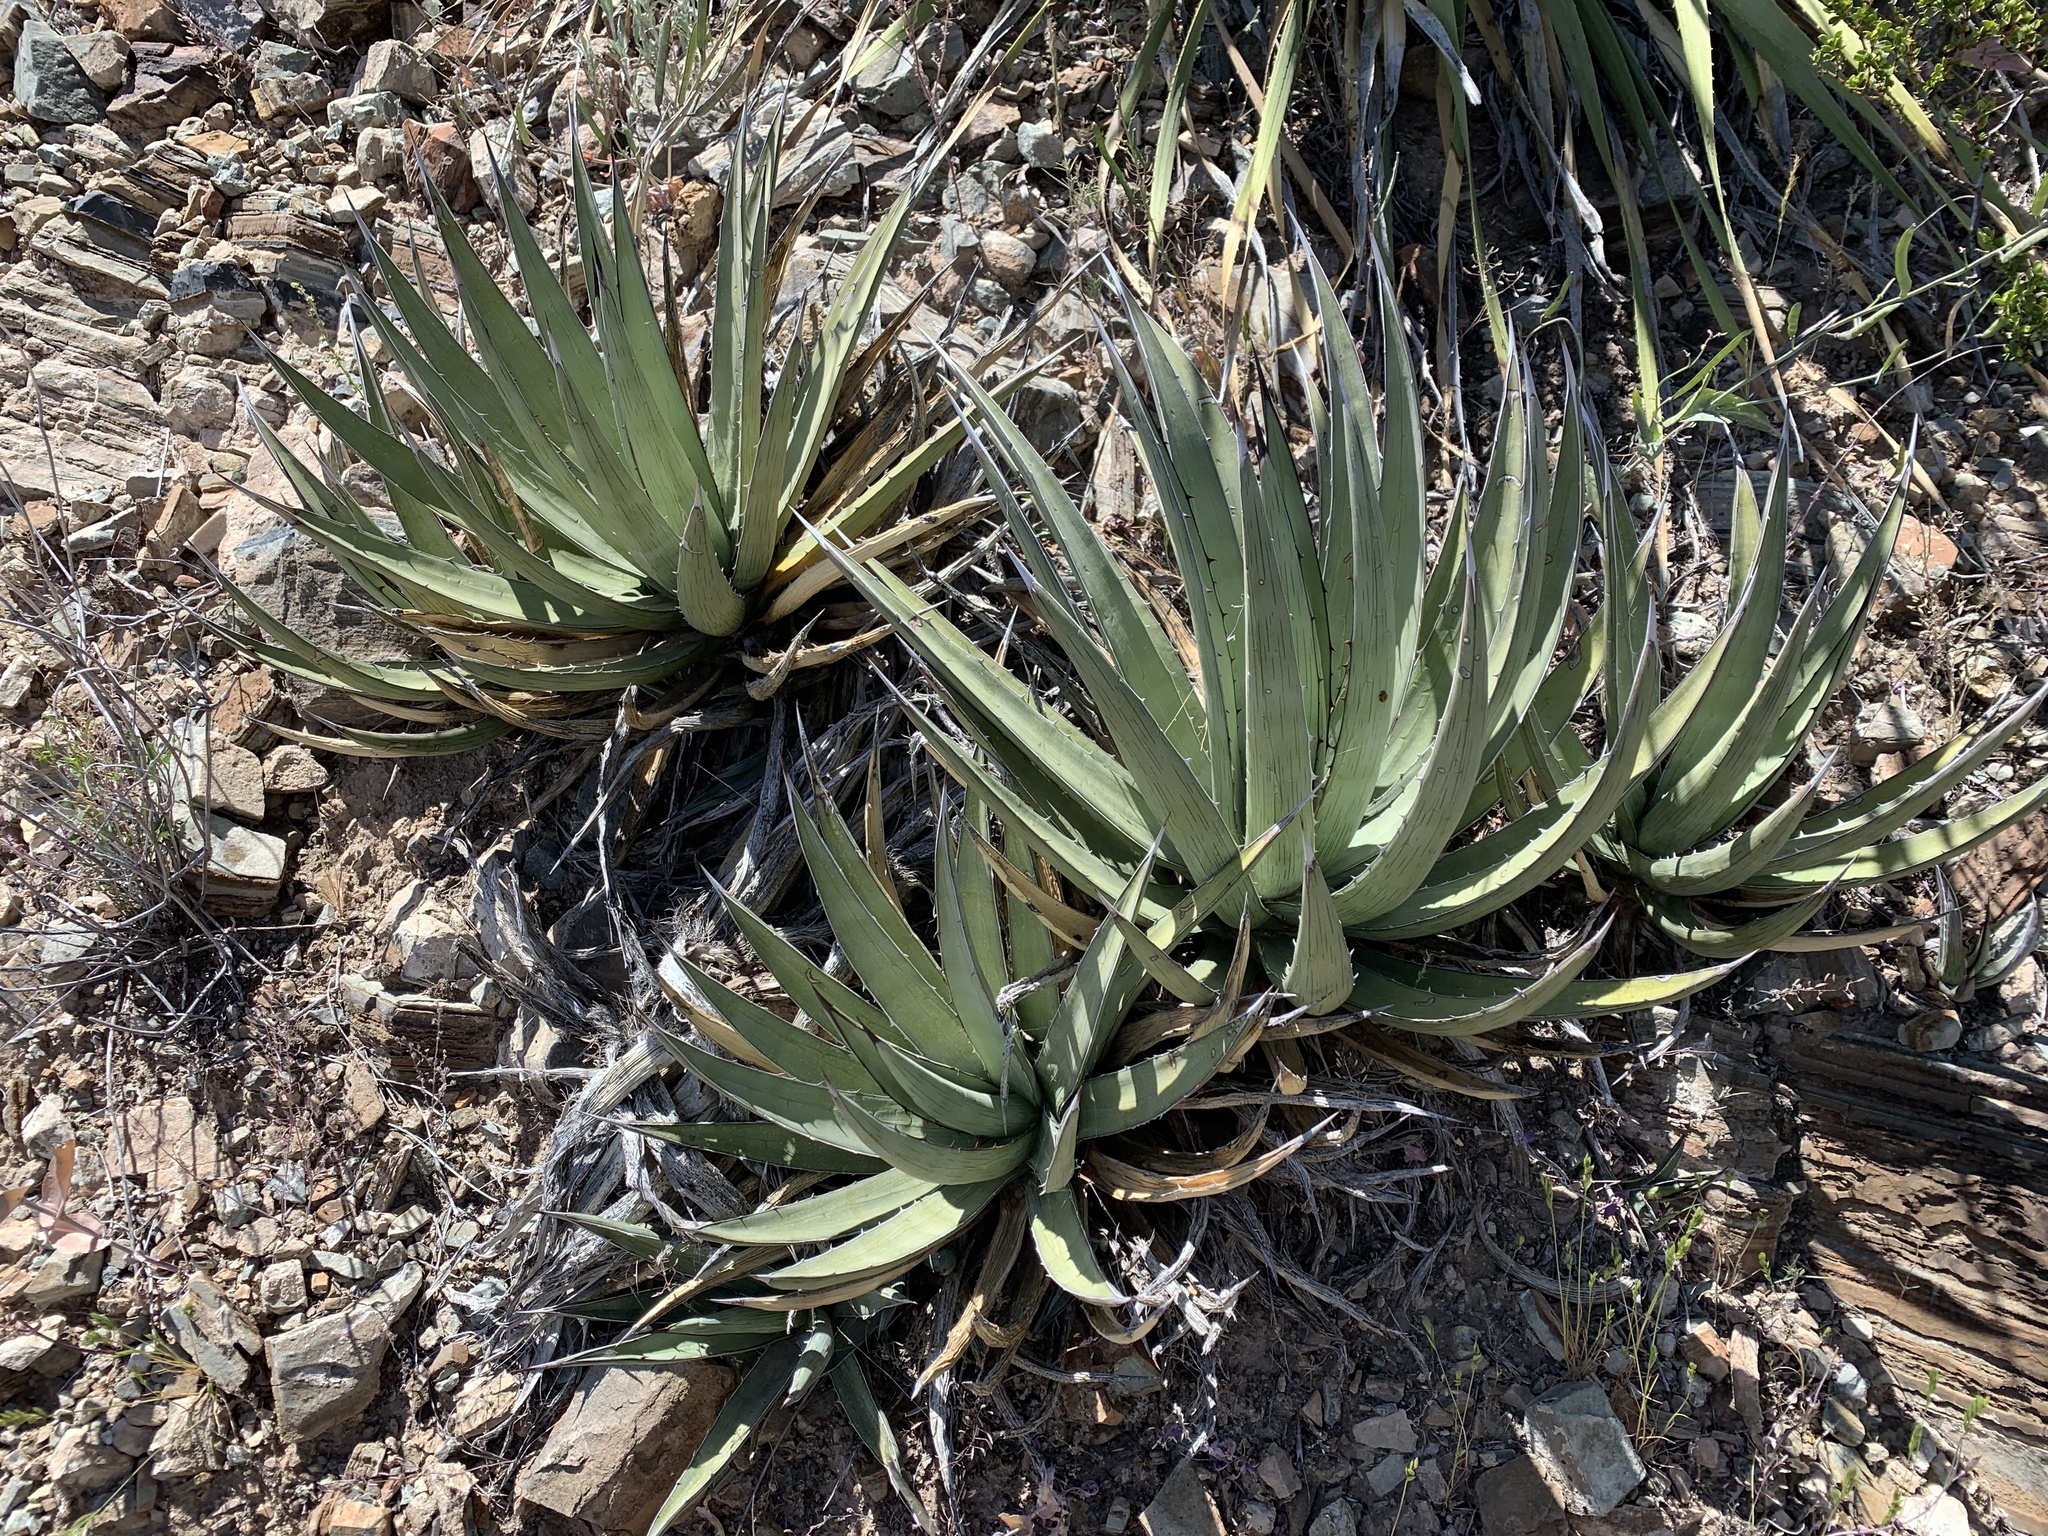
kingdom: Plantae
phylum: Tracheophyta
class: Liliopsida
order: Asparagales
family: Asparagaceae
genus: Agave
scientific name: Agave lechuguilla
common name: Lecheguilla agave
